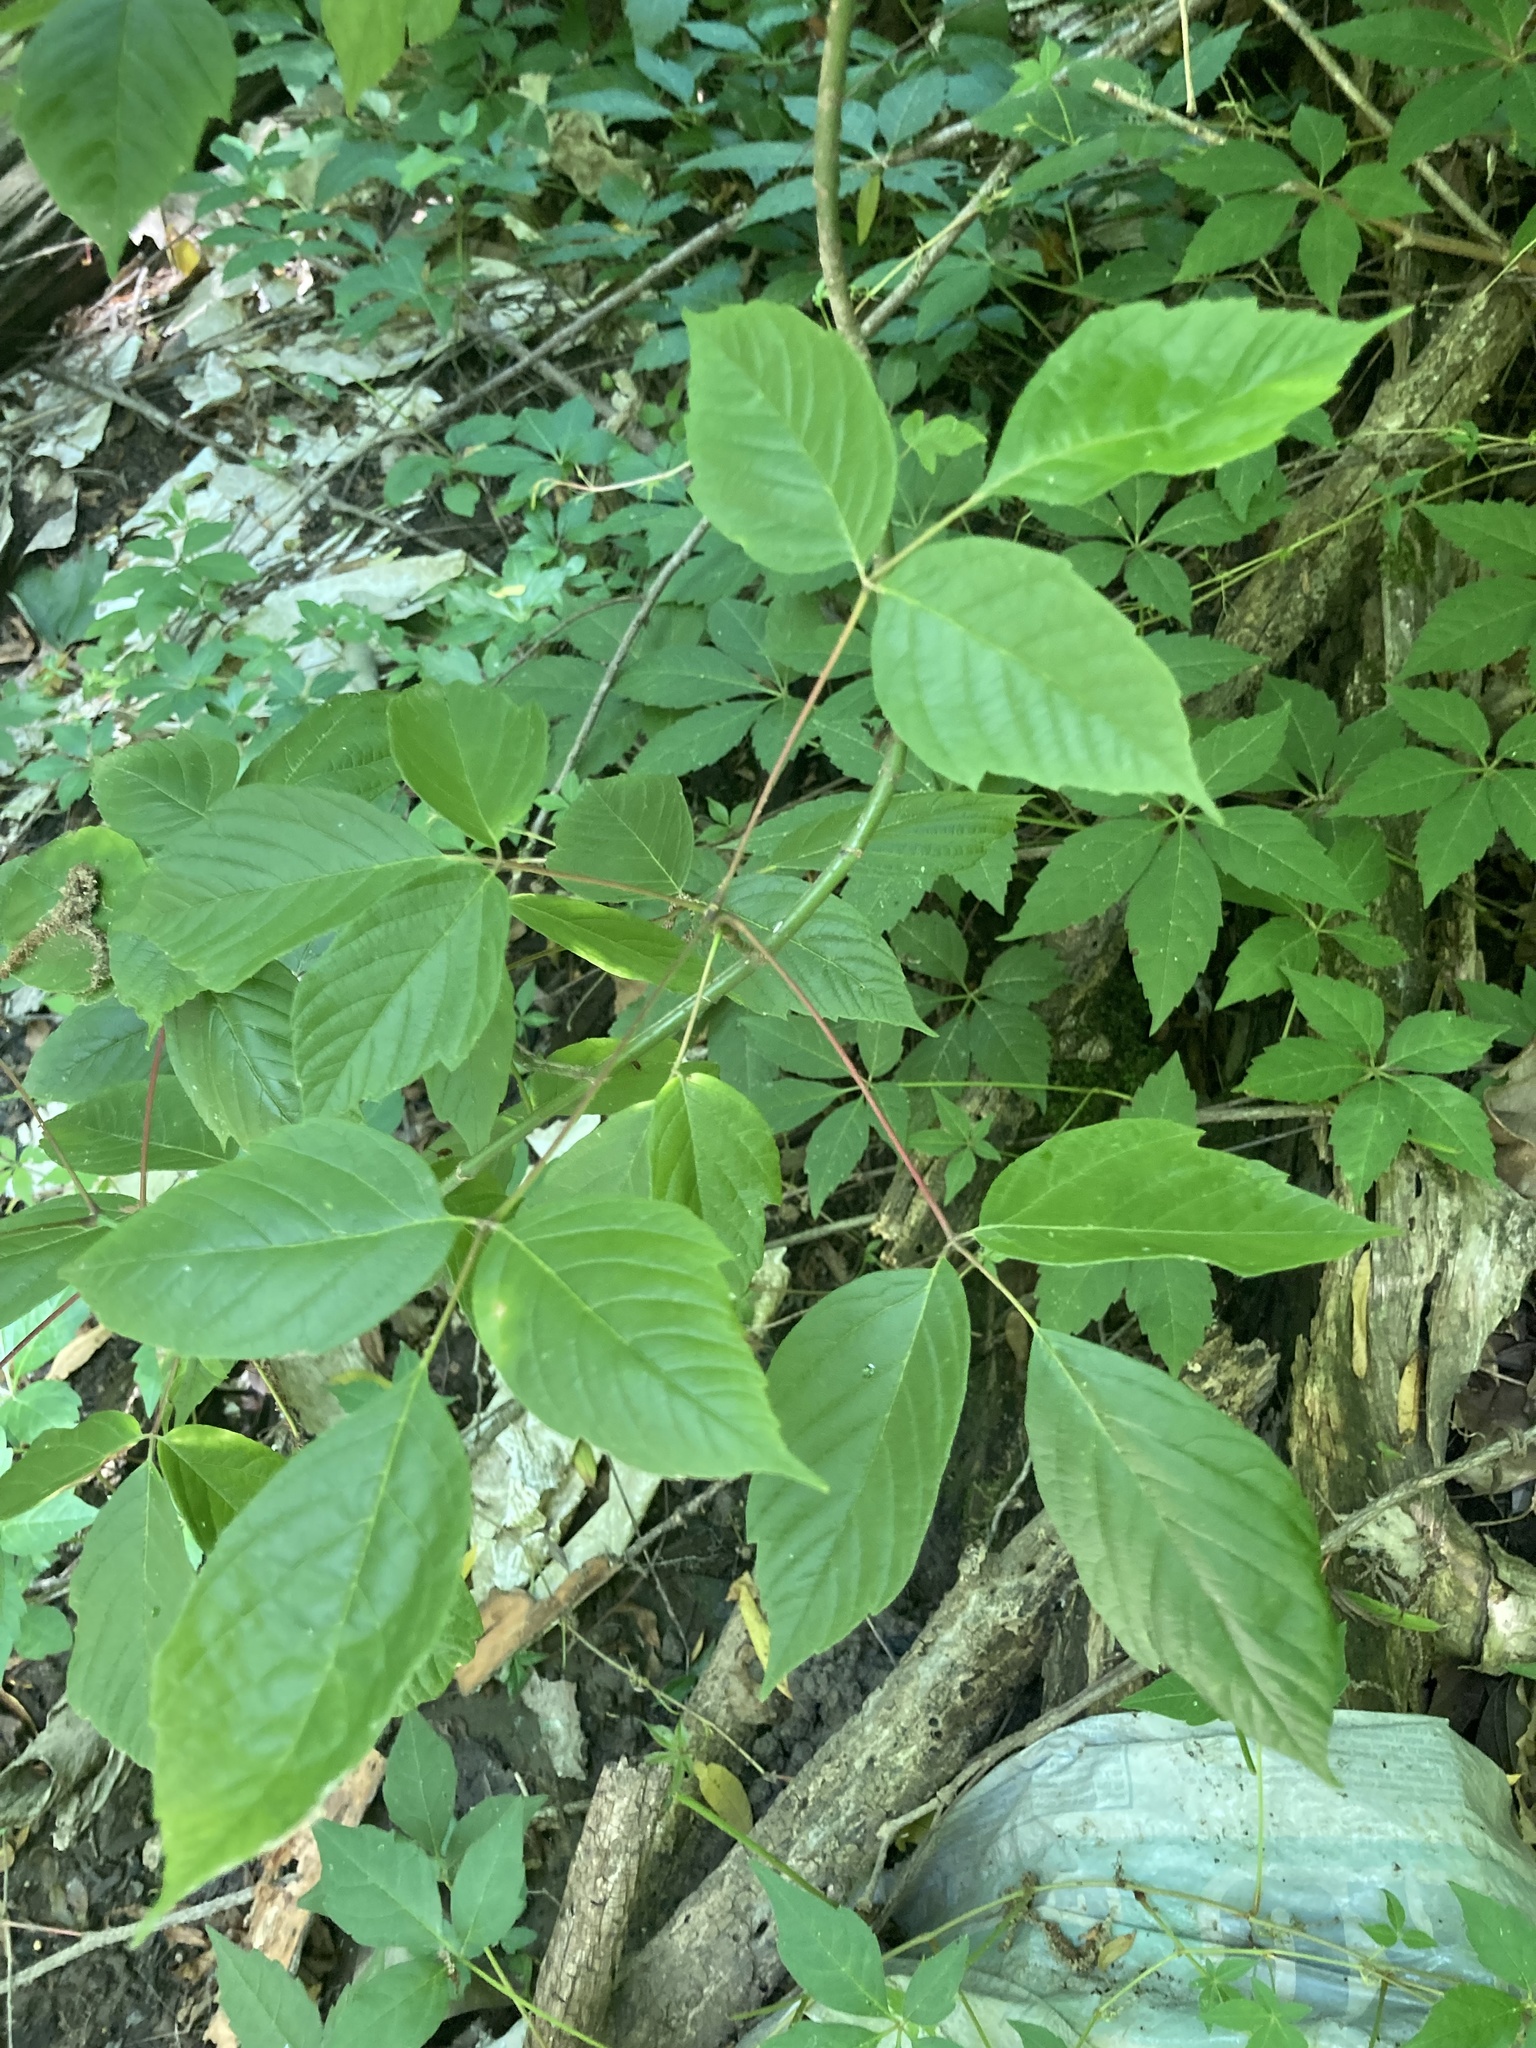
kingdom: Plantae
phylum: Tracheophyta
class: Magnoliopsida
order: Sapindales
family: Sapindaceae
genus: Acer
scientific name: Acer negundo
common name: Ashleaf maple
